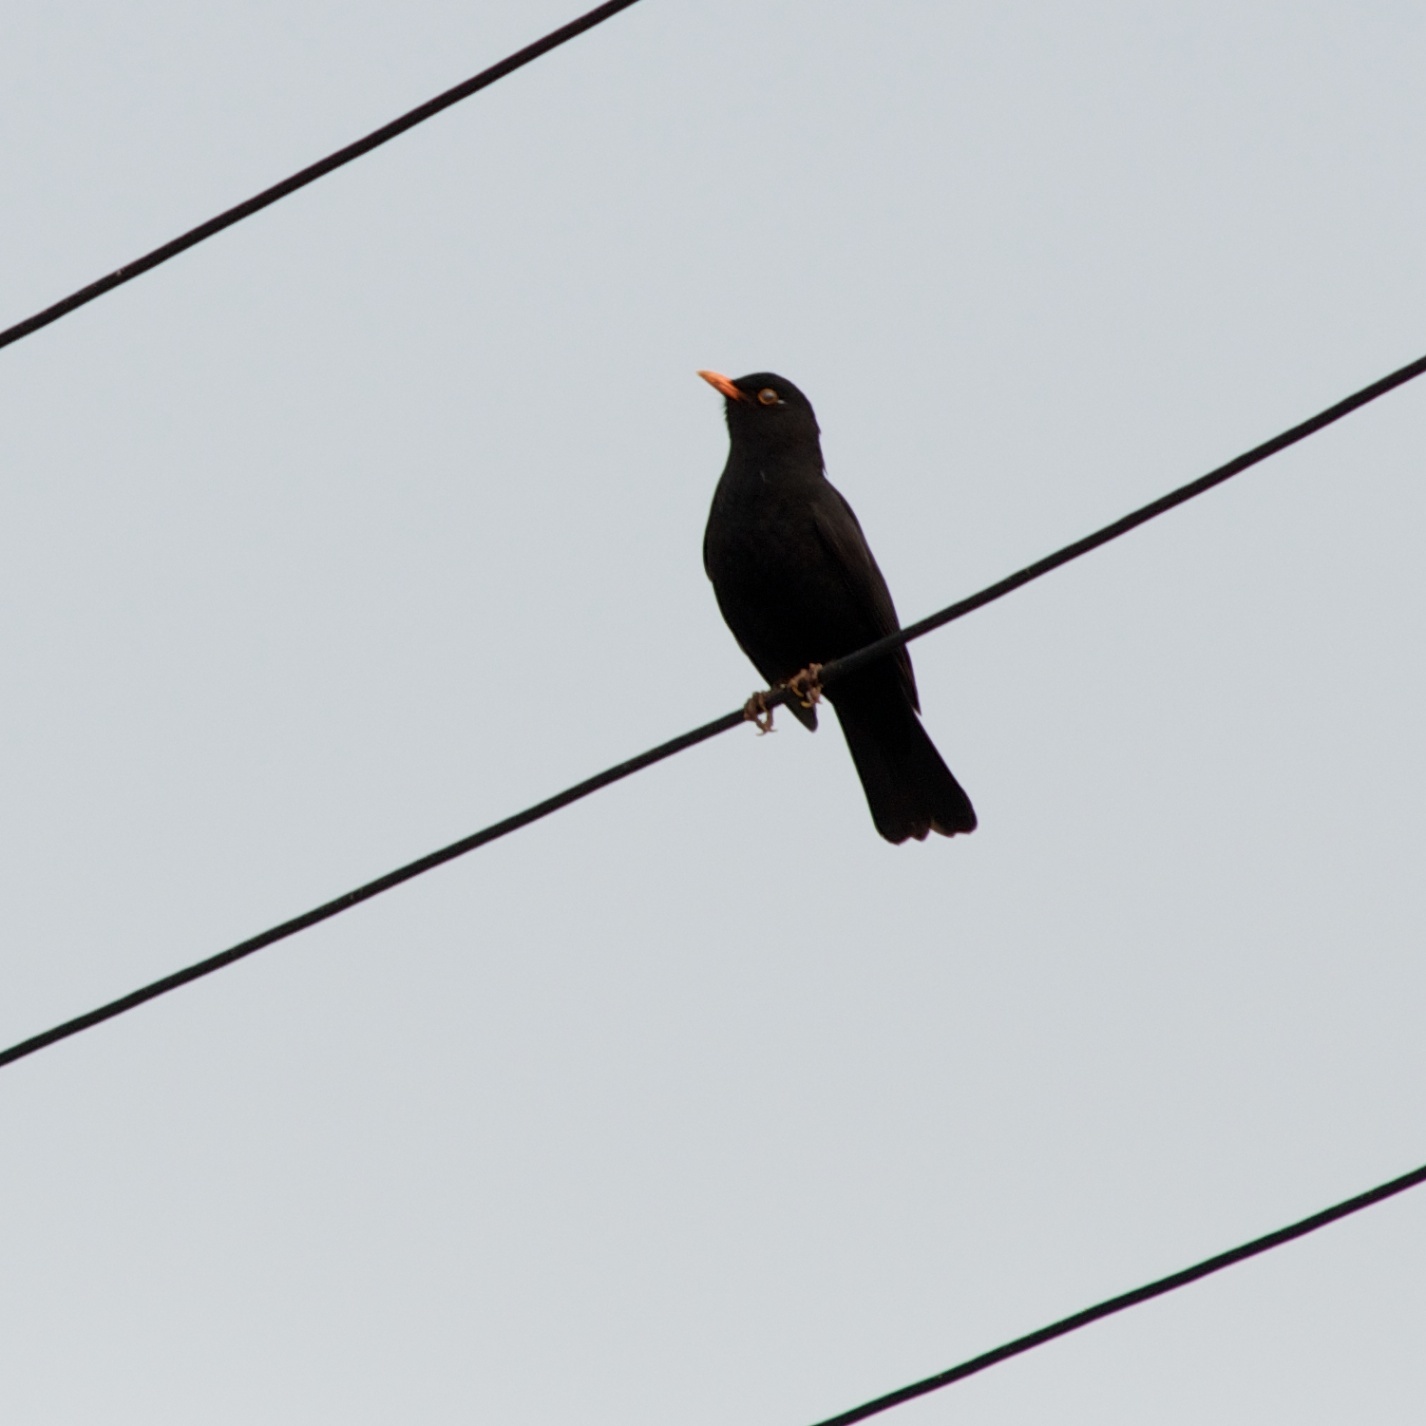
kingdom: Animalia
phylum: Chordata
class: Aves
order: Passeriformes
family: Turdidae
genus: Turdus
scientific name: Turdus merula
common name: Common blackbird
